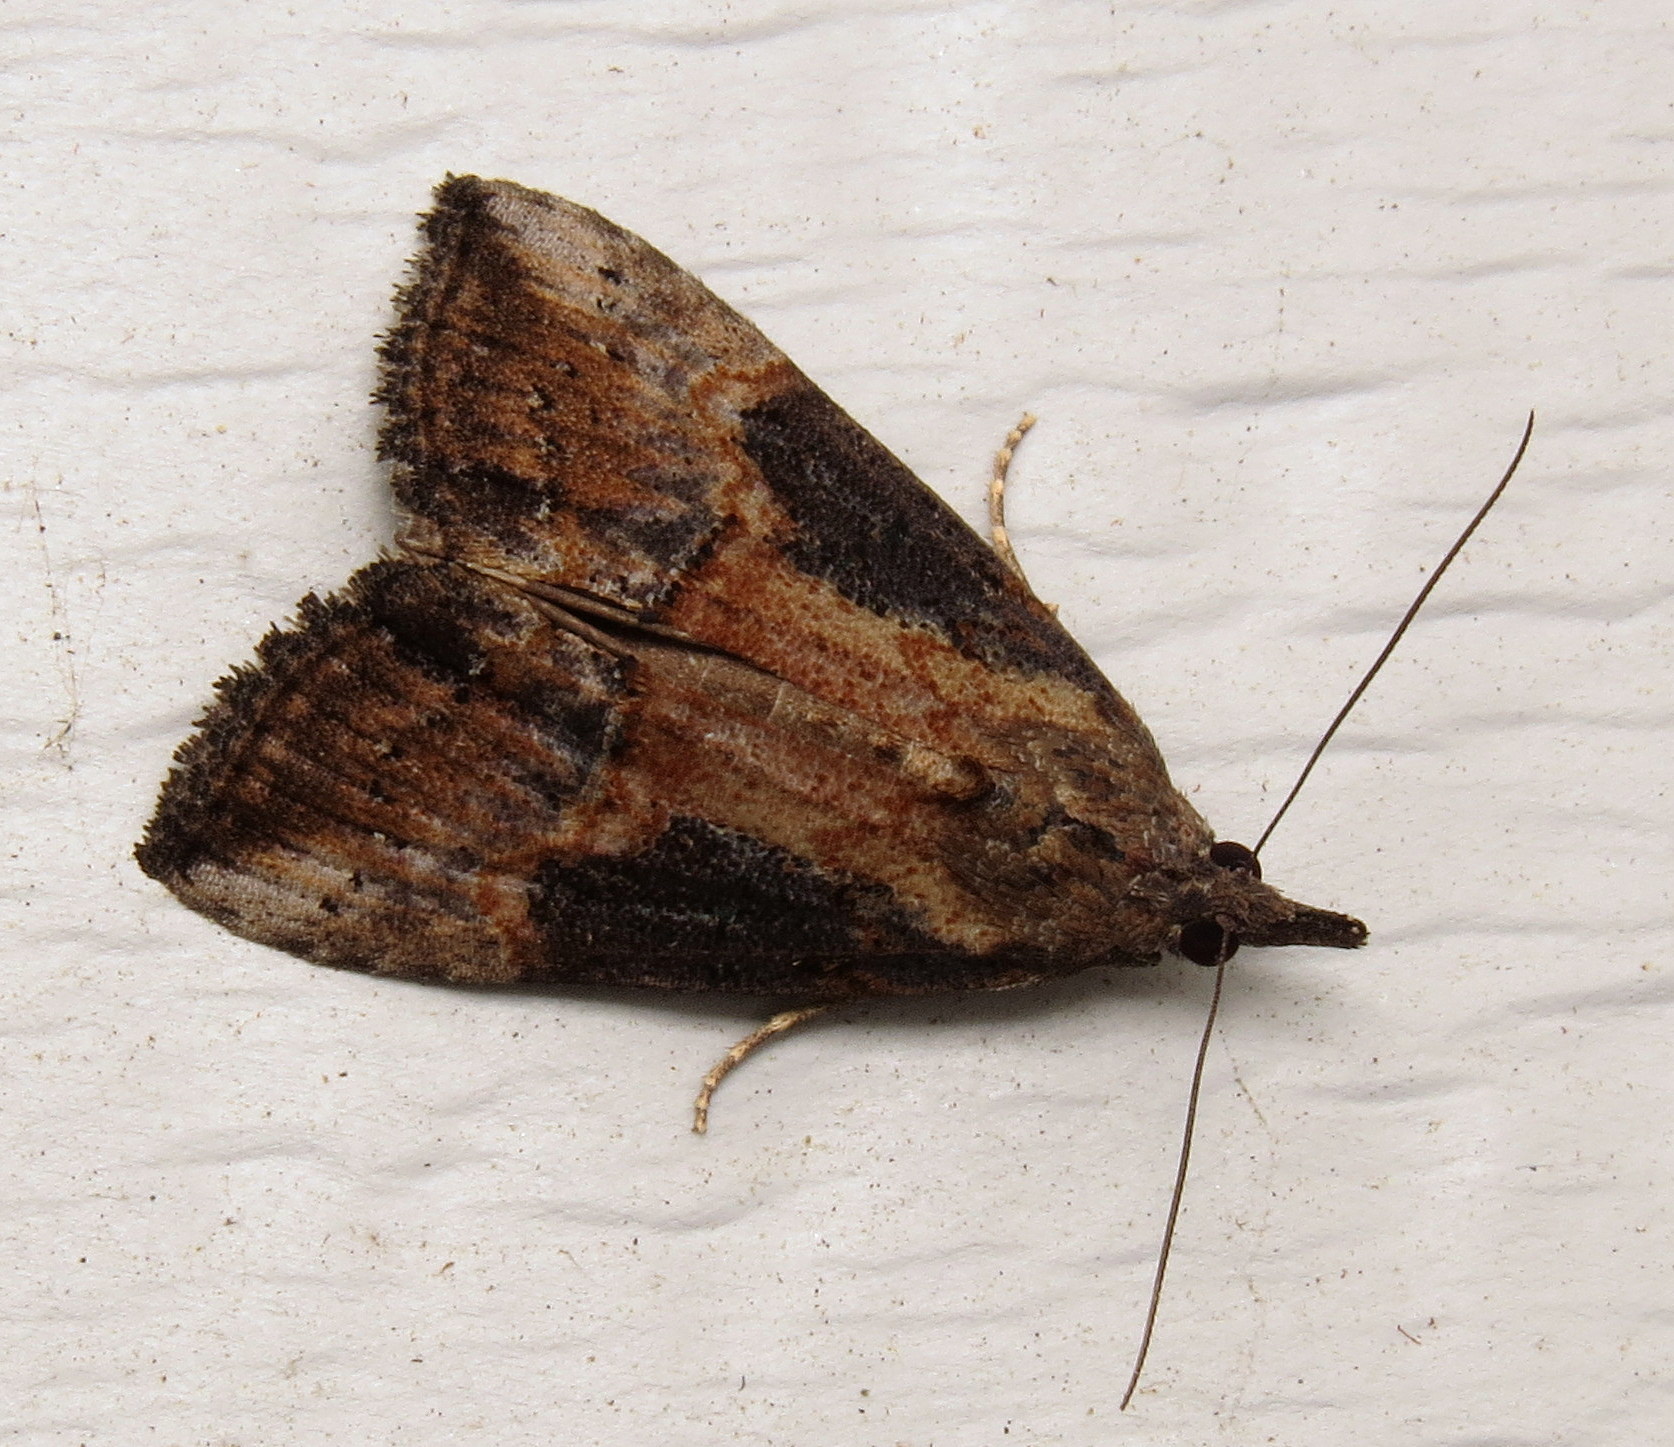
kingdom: Animalia
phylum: Arthropoda
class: Insecta
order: Lepidoptera
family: Erebidae
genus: Hypena
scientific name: Hypena scabra
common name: Green cloverworm
